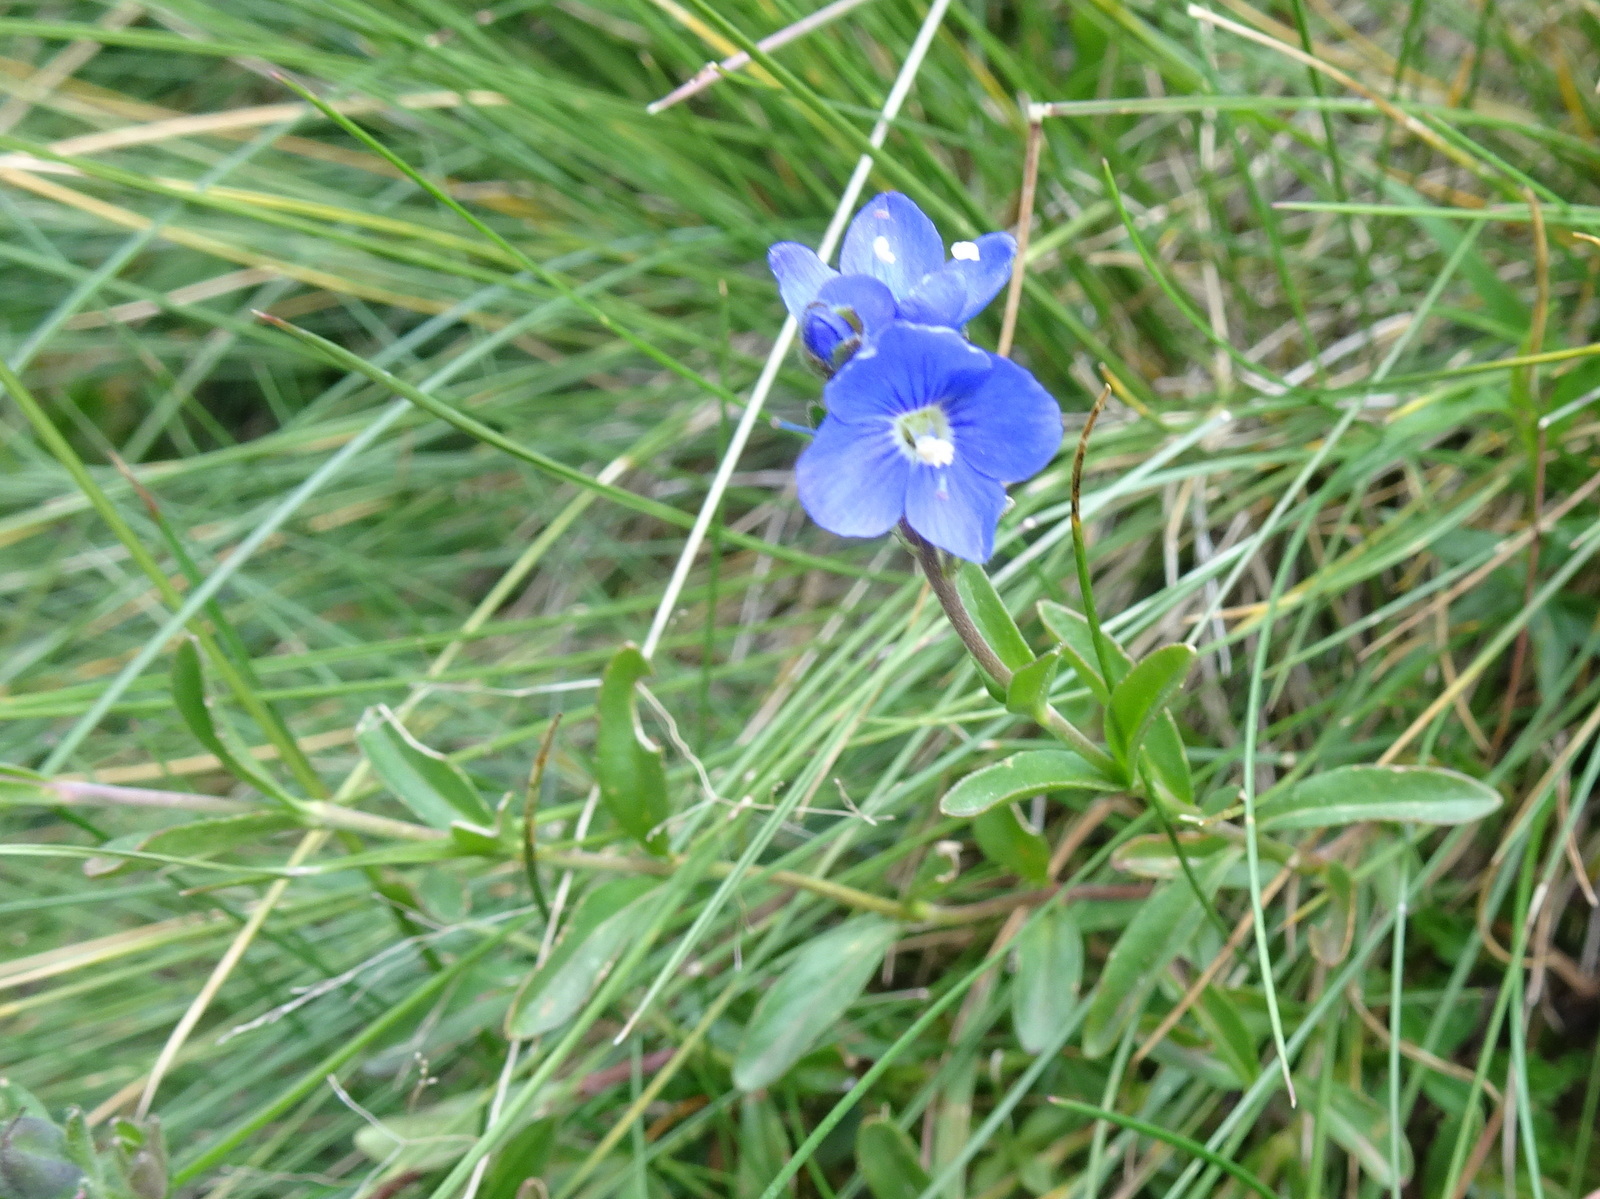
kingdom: Plantae
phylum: Tracheophyta
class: Magnoliopsida
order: Lamiales
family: Plantaginaceae
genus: Veronica
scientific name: Veronica fruticans
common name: Rock speedwell
